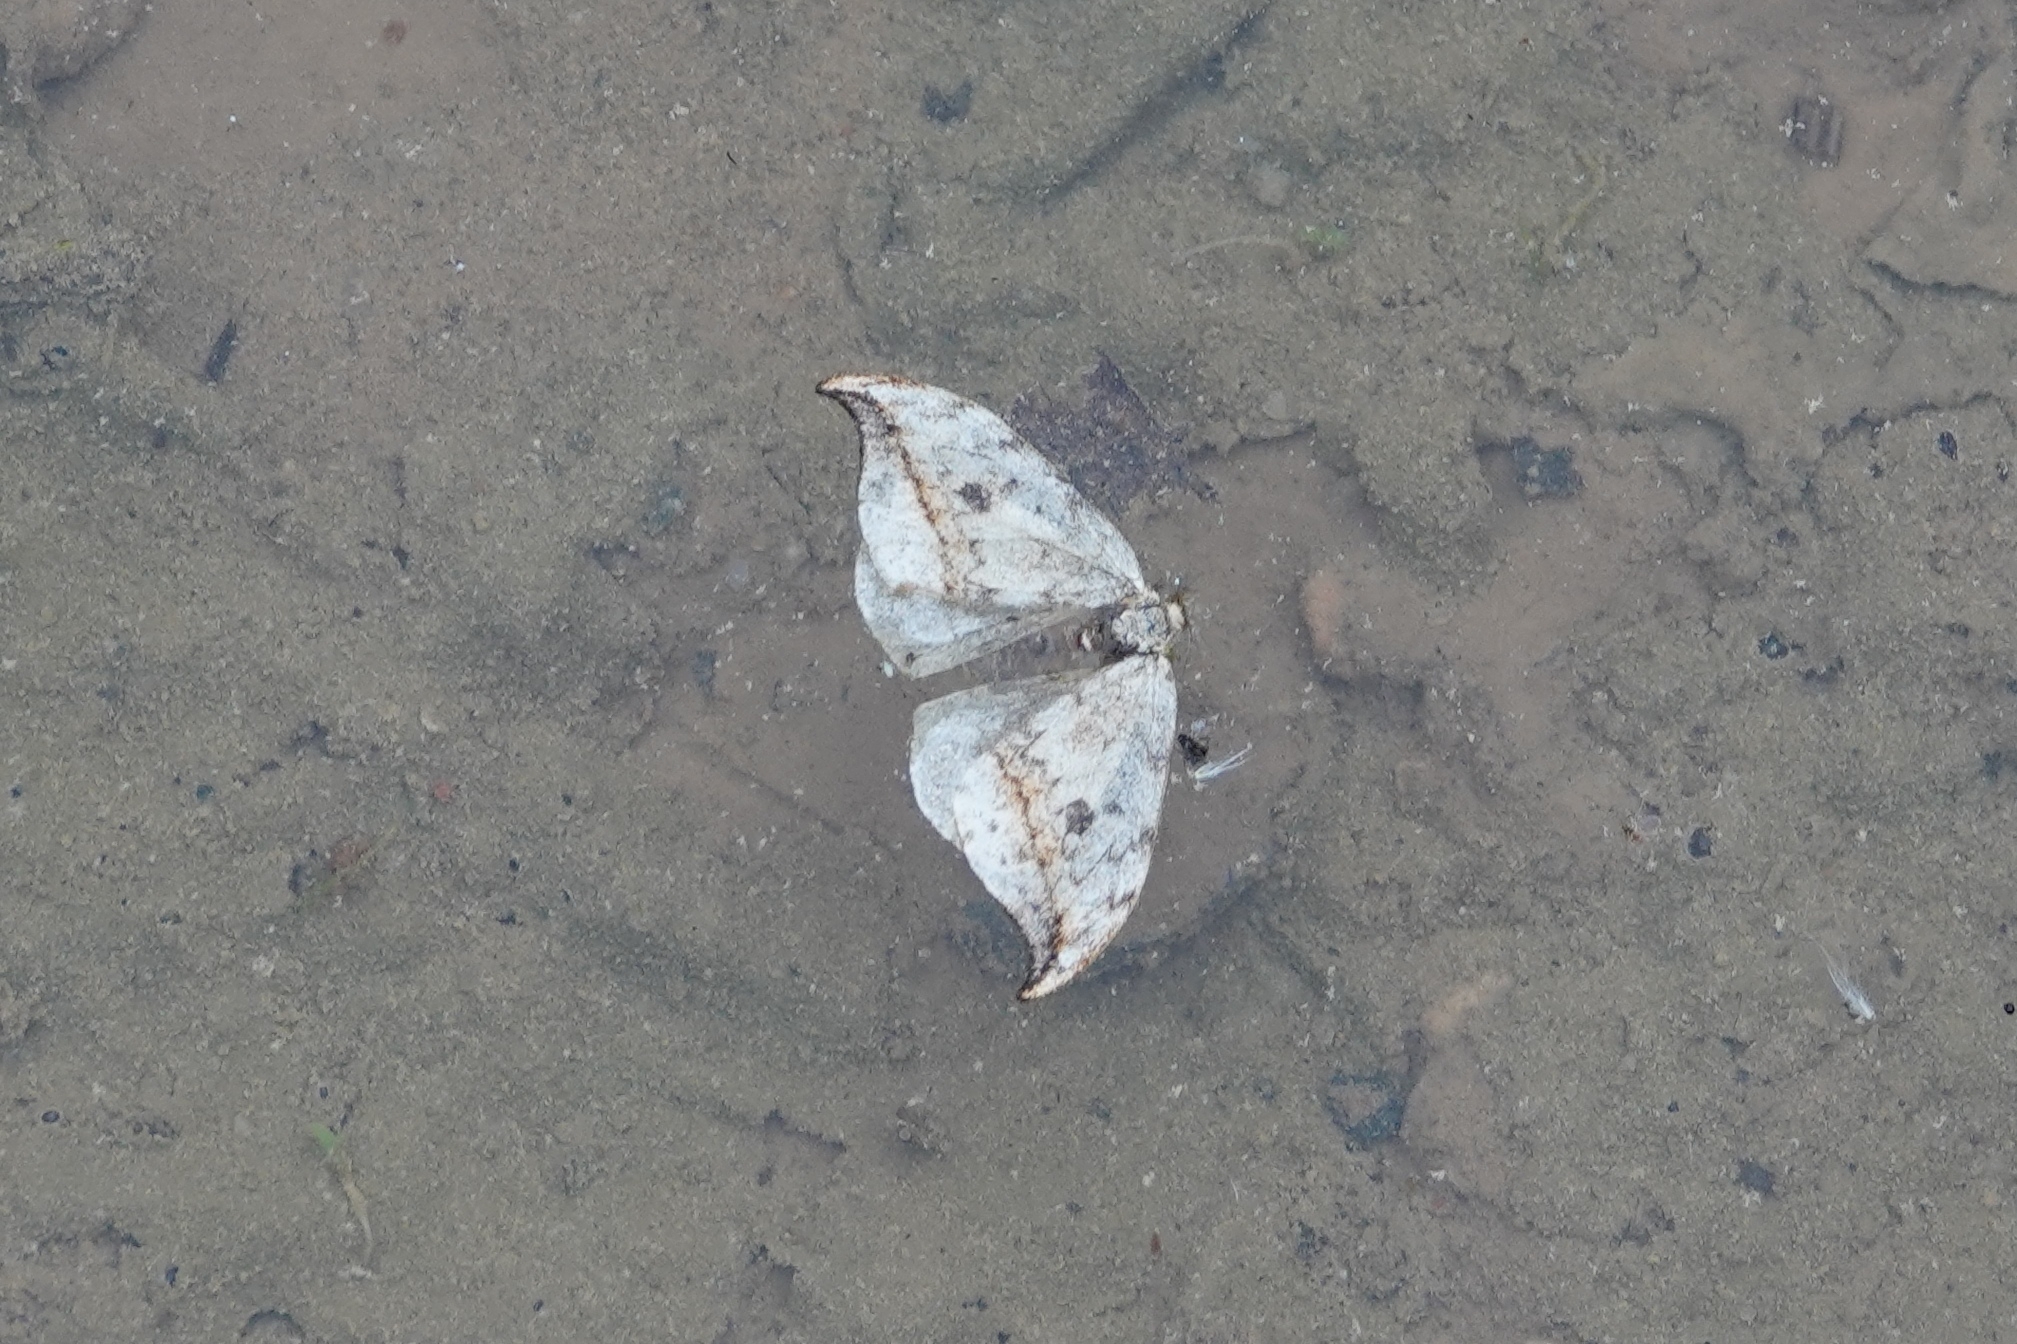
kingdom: Animalia
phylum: Arthropoda
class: Insecta
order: Lepidoptera
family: Drepanidae
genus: Drepana
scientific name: Drepana falcataria
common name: Pebble hook-tip
